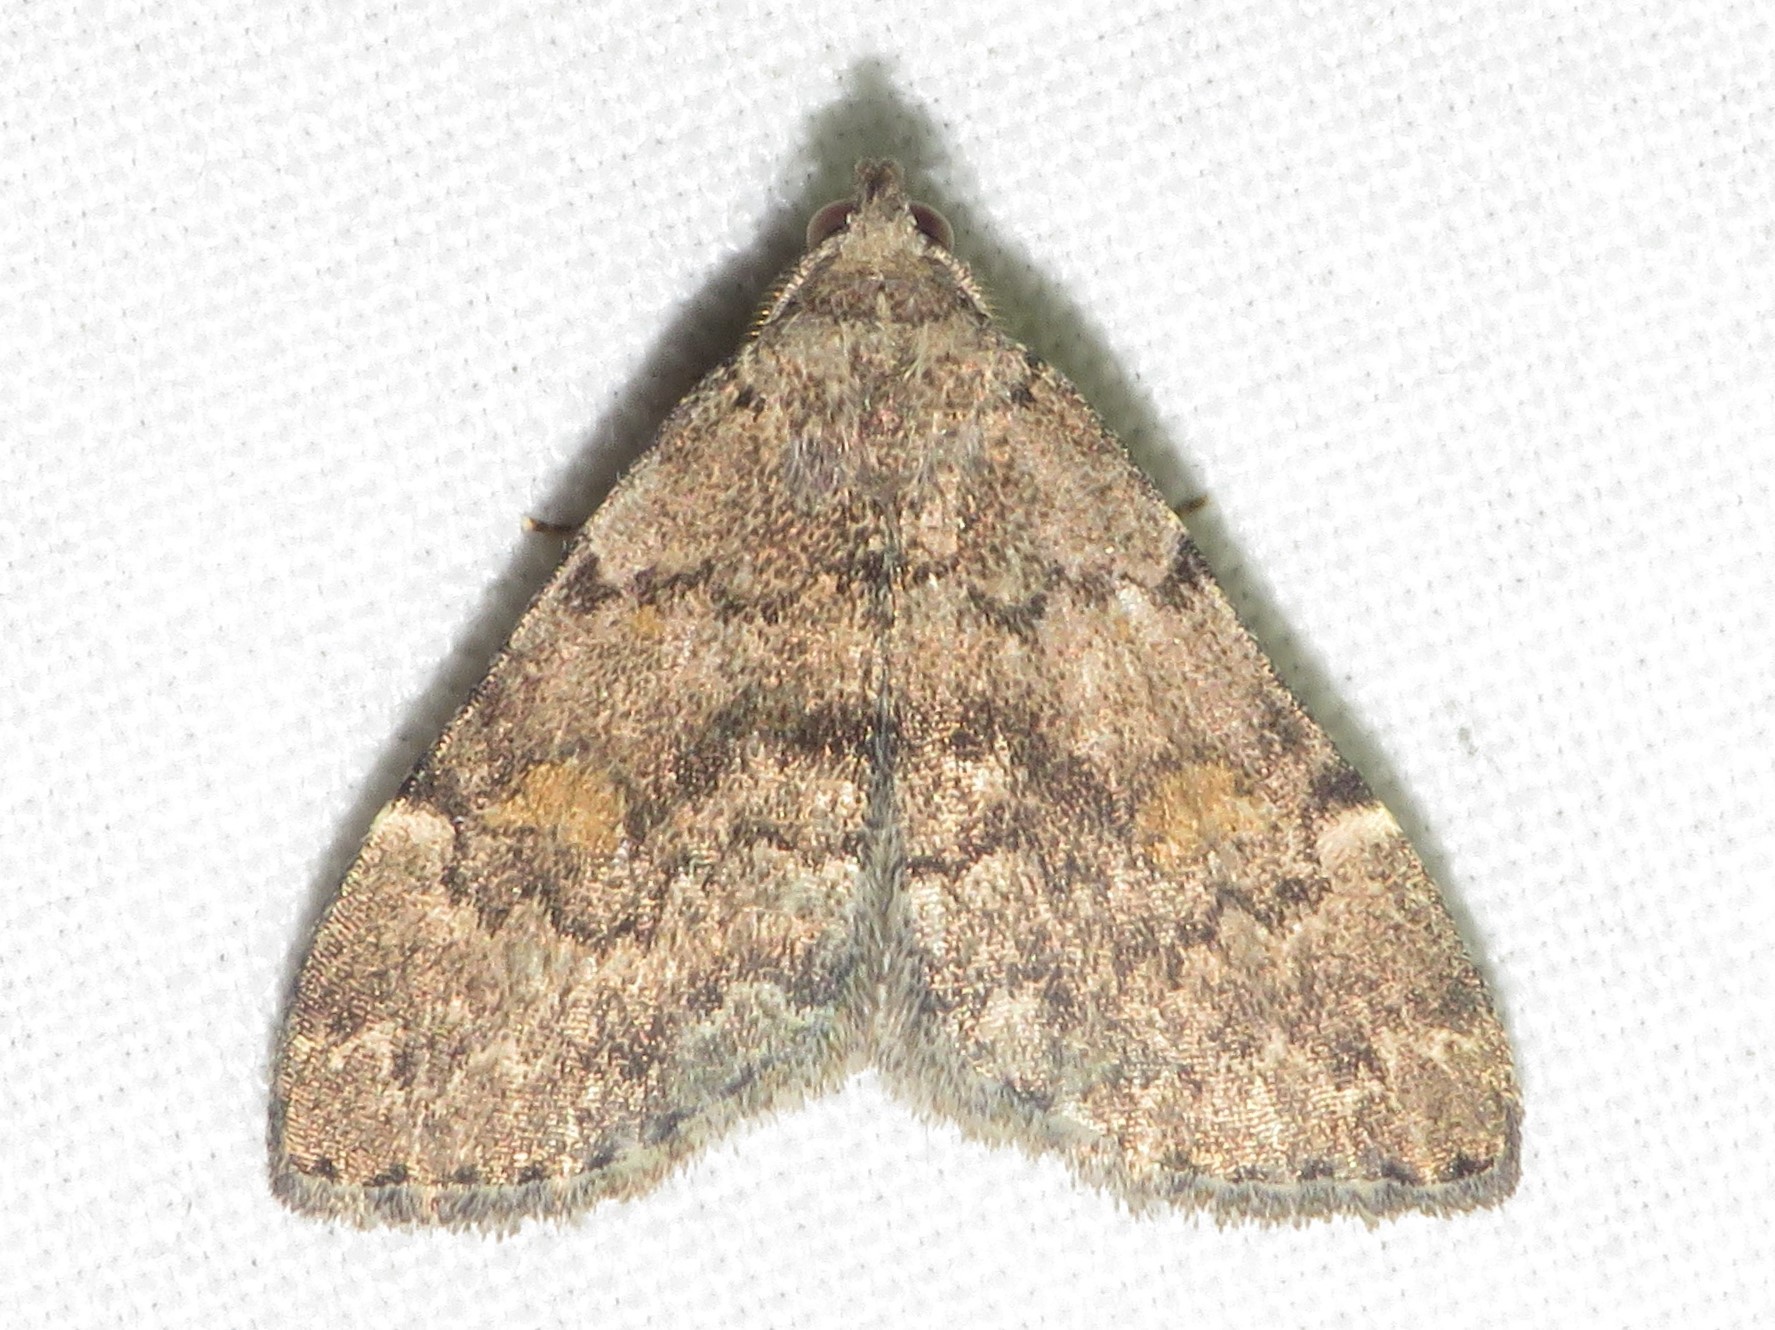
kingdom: Animalia
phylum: Arthropoda
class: Insecta
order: Lepidoptera
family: Erebidae
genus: Idia
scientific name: Idia aemula
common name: Common idia moth
